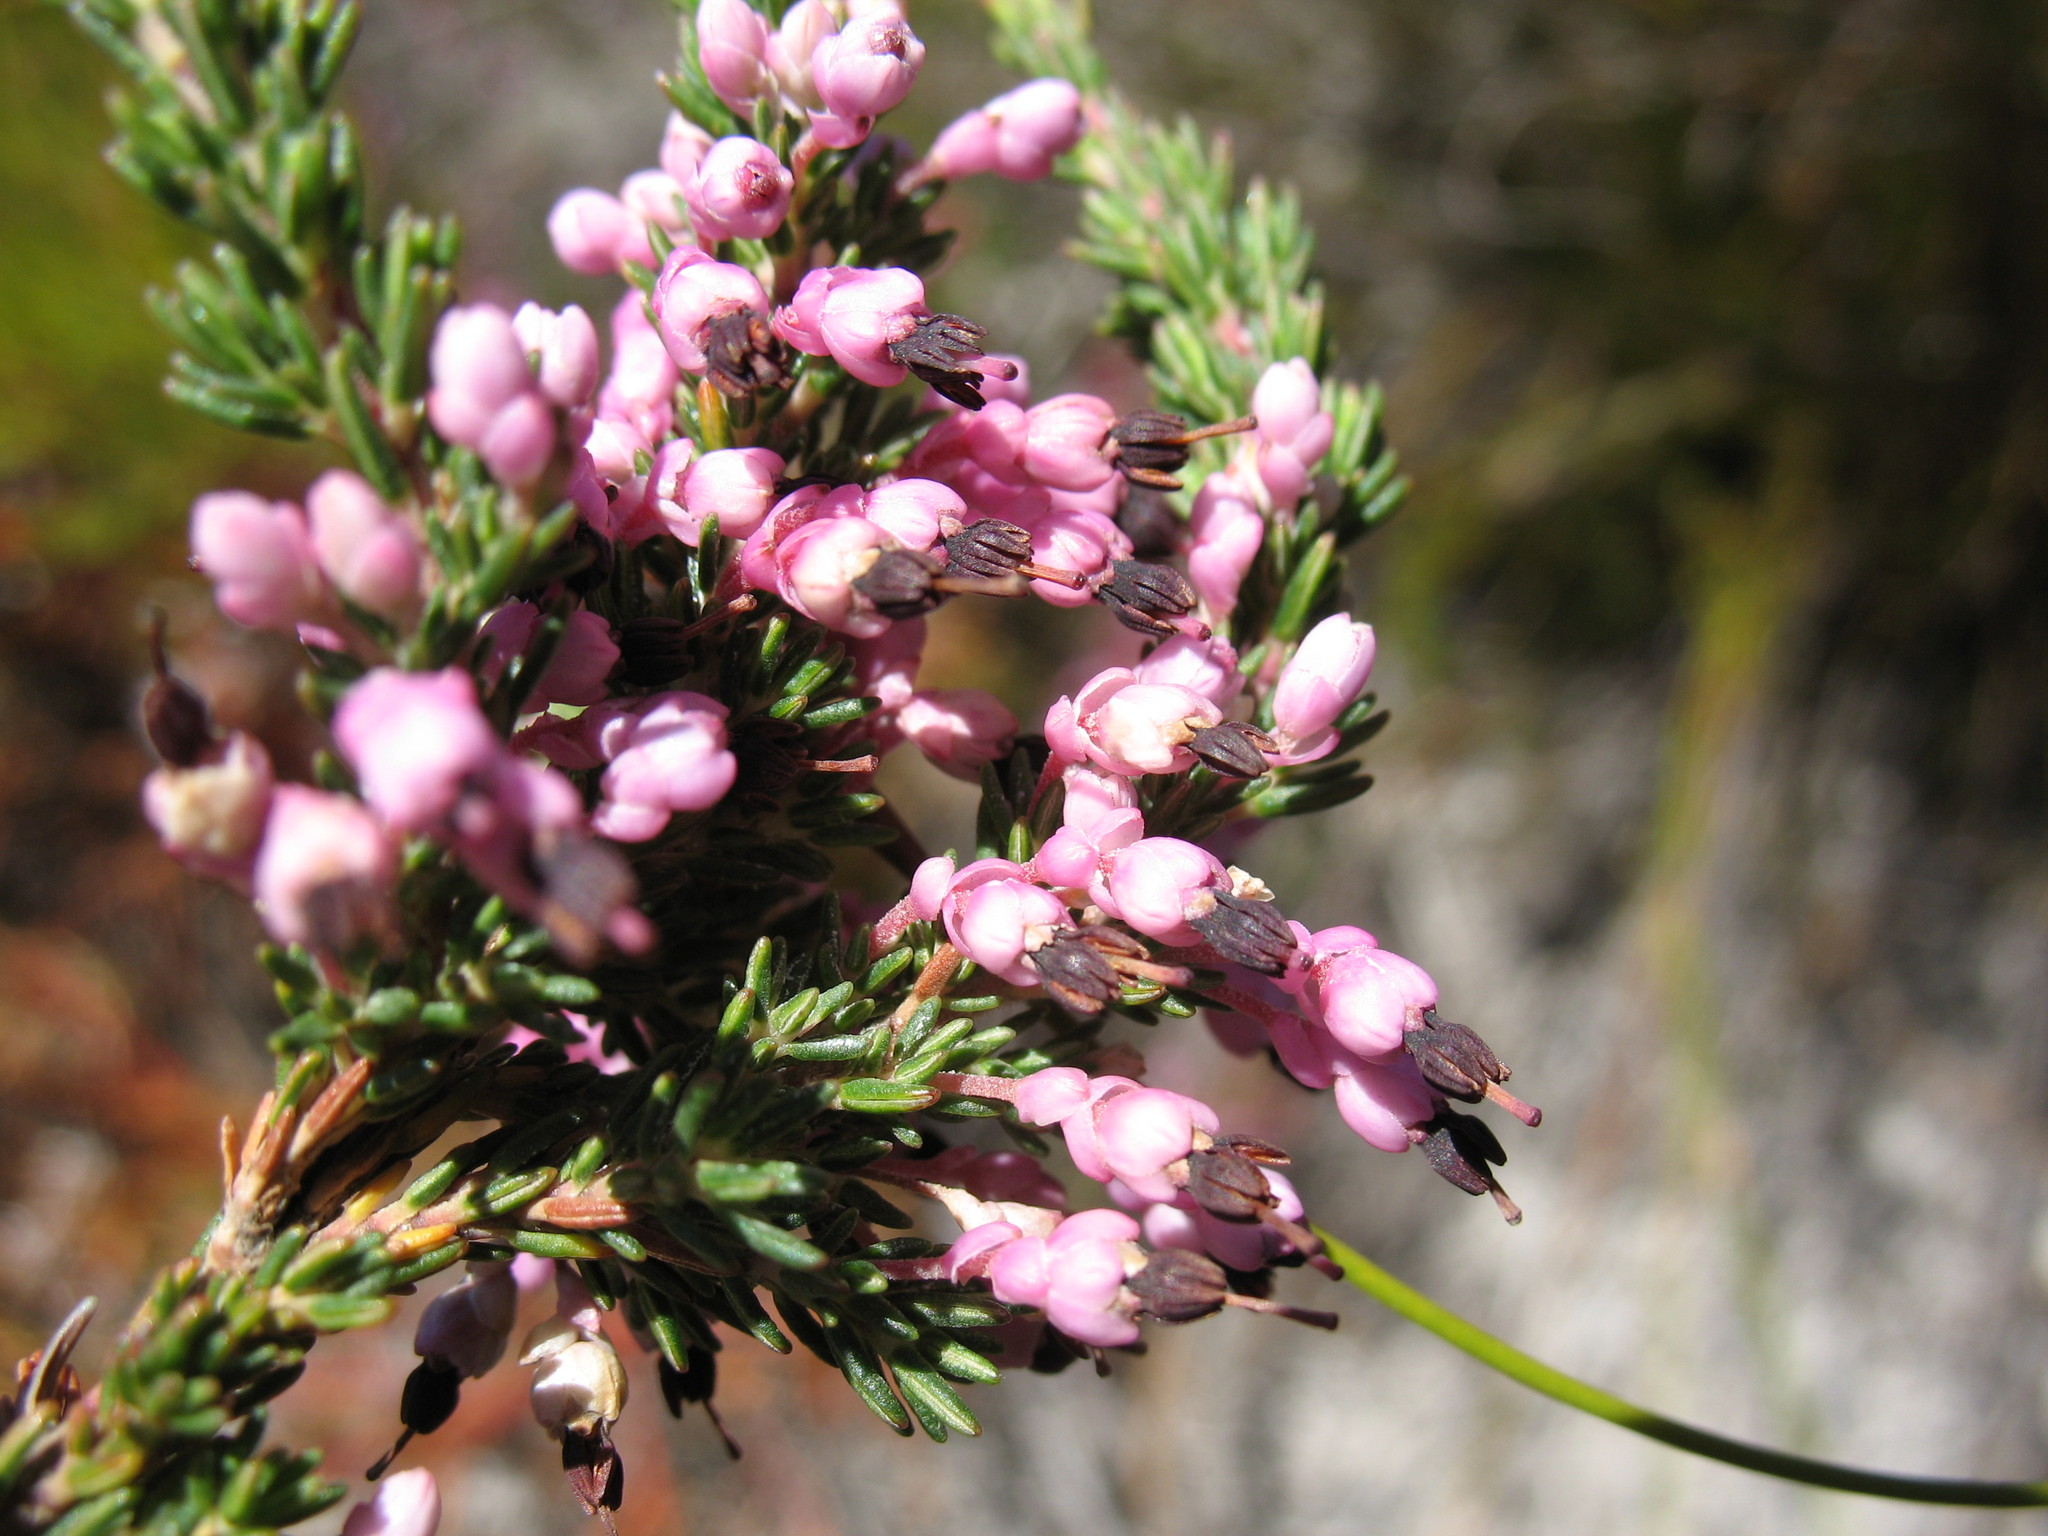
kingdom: Plantae
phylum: Tracheophyta
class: Magnoliopsida
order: Ericales
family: Ericaceae
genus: Erica
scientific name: Erica placentiflora
